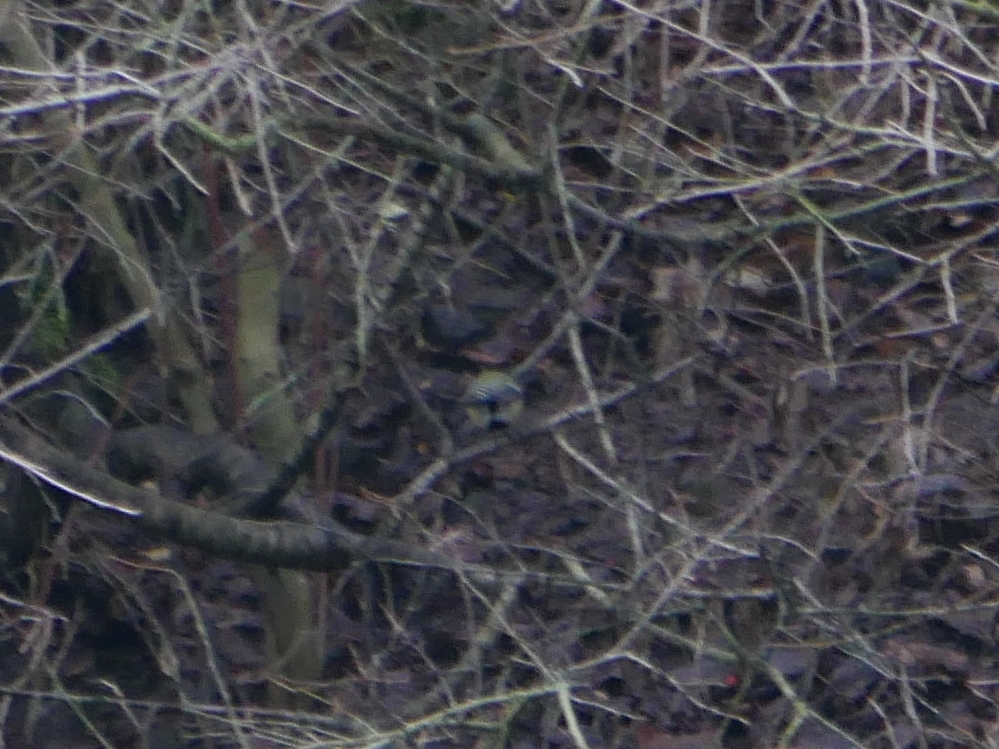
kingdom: Animalia
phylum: Chordata
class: Aves
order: Passeriformes
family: Paridae
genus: Parus
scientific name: Parus major
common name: Great tit
